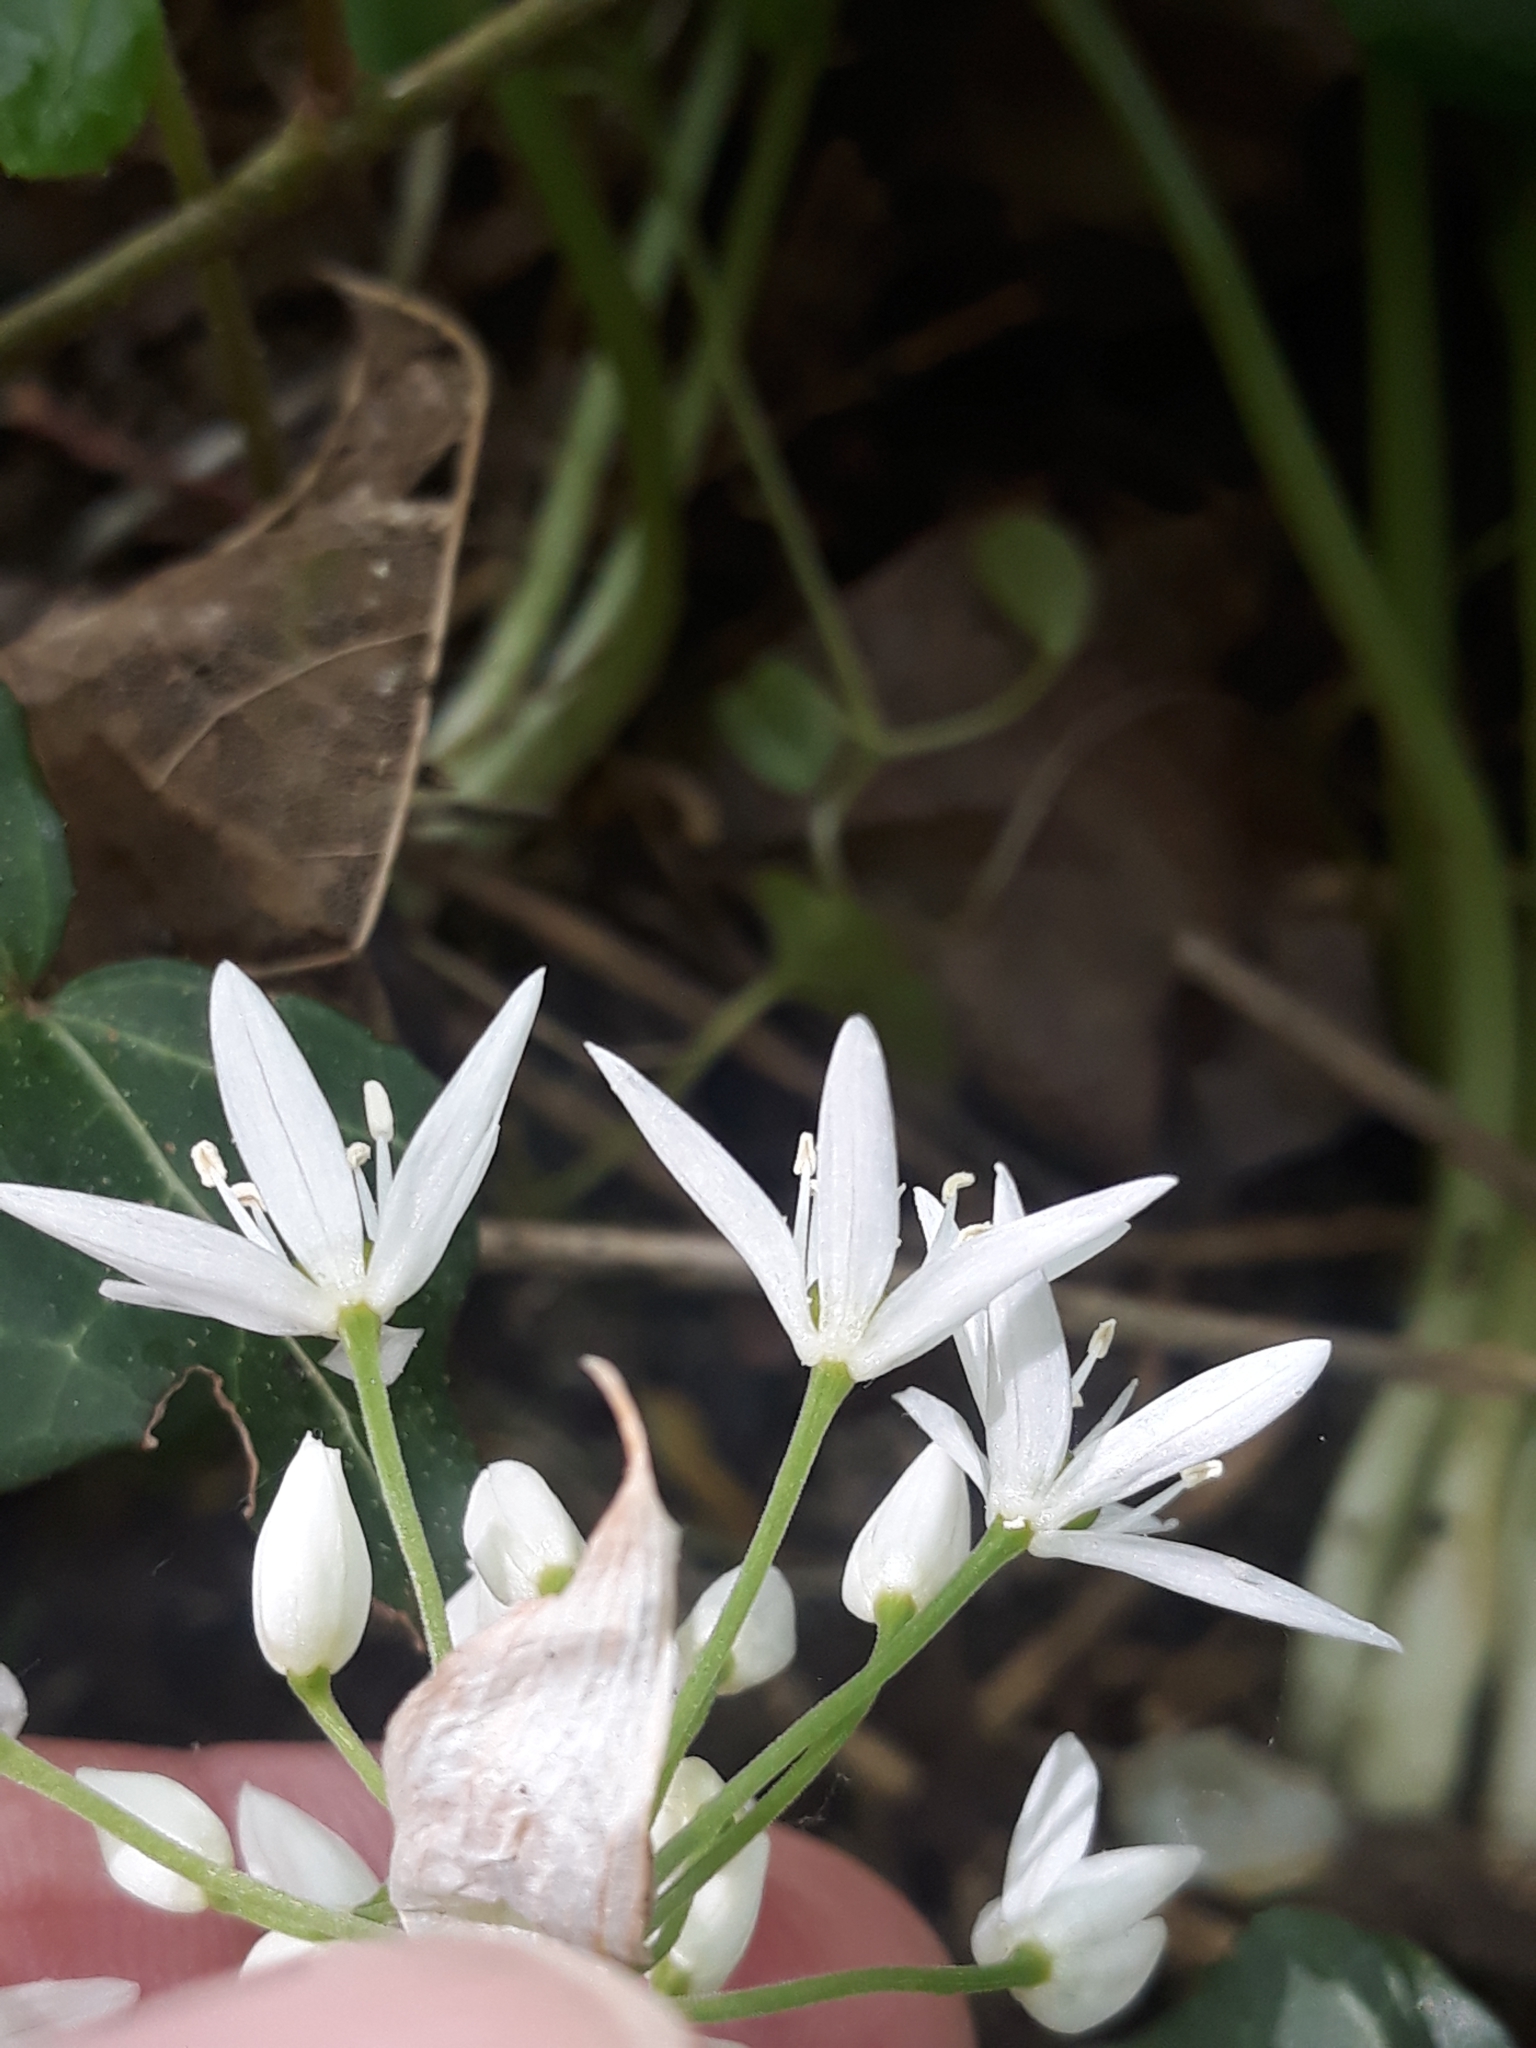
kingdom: Plantae
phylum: Tracheophyta
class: Liliopsida
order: Asparagales
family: Amaryllidaceae
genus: Allium
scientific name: Allium ursinum
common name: Ramsons
